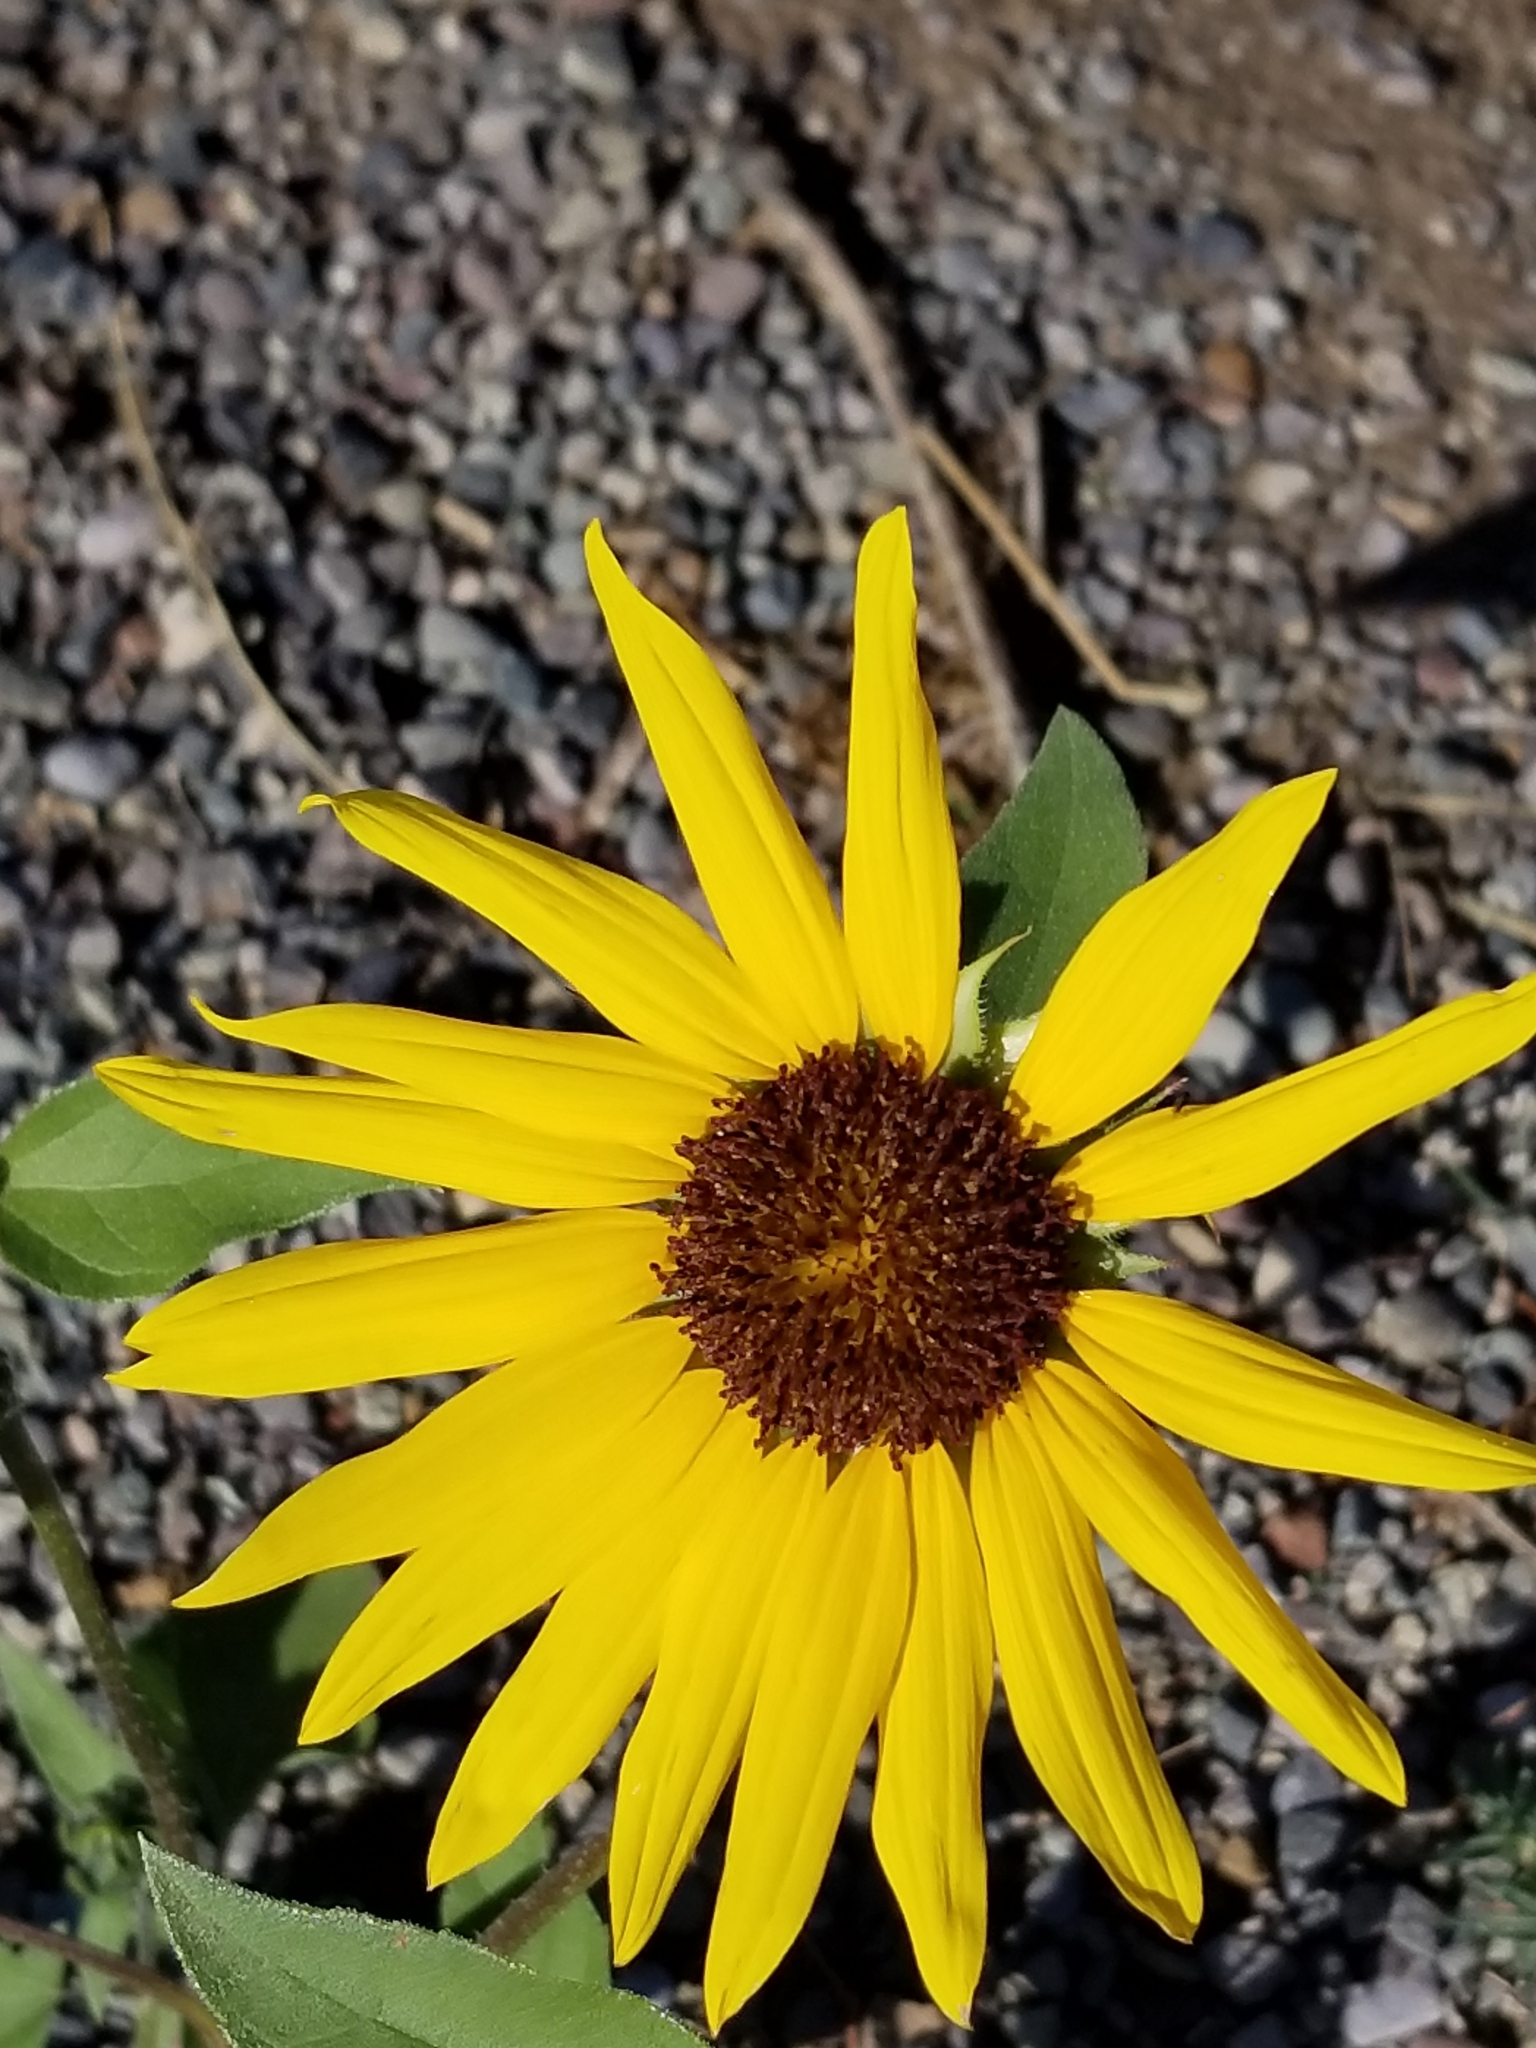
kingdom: Plantae
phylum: Tracheophyta
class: Magnoliopsida
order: Asterales
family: Asteraceae
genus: Helianthus
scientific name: Helianthus annuus
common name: Sunflower
